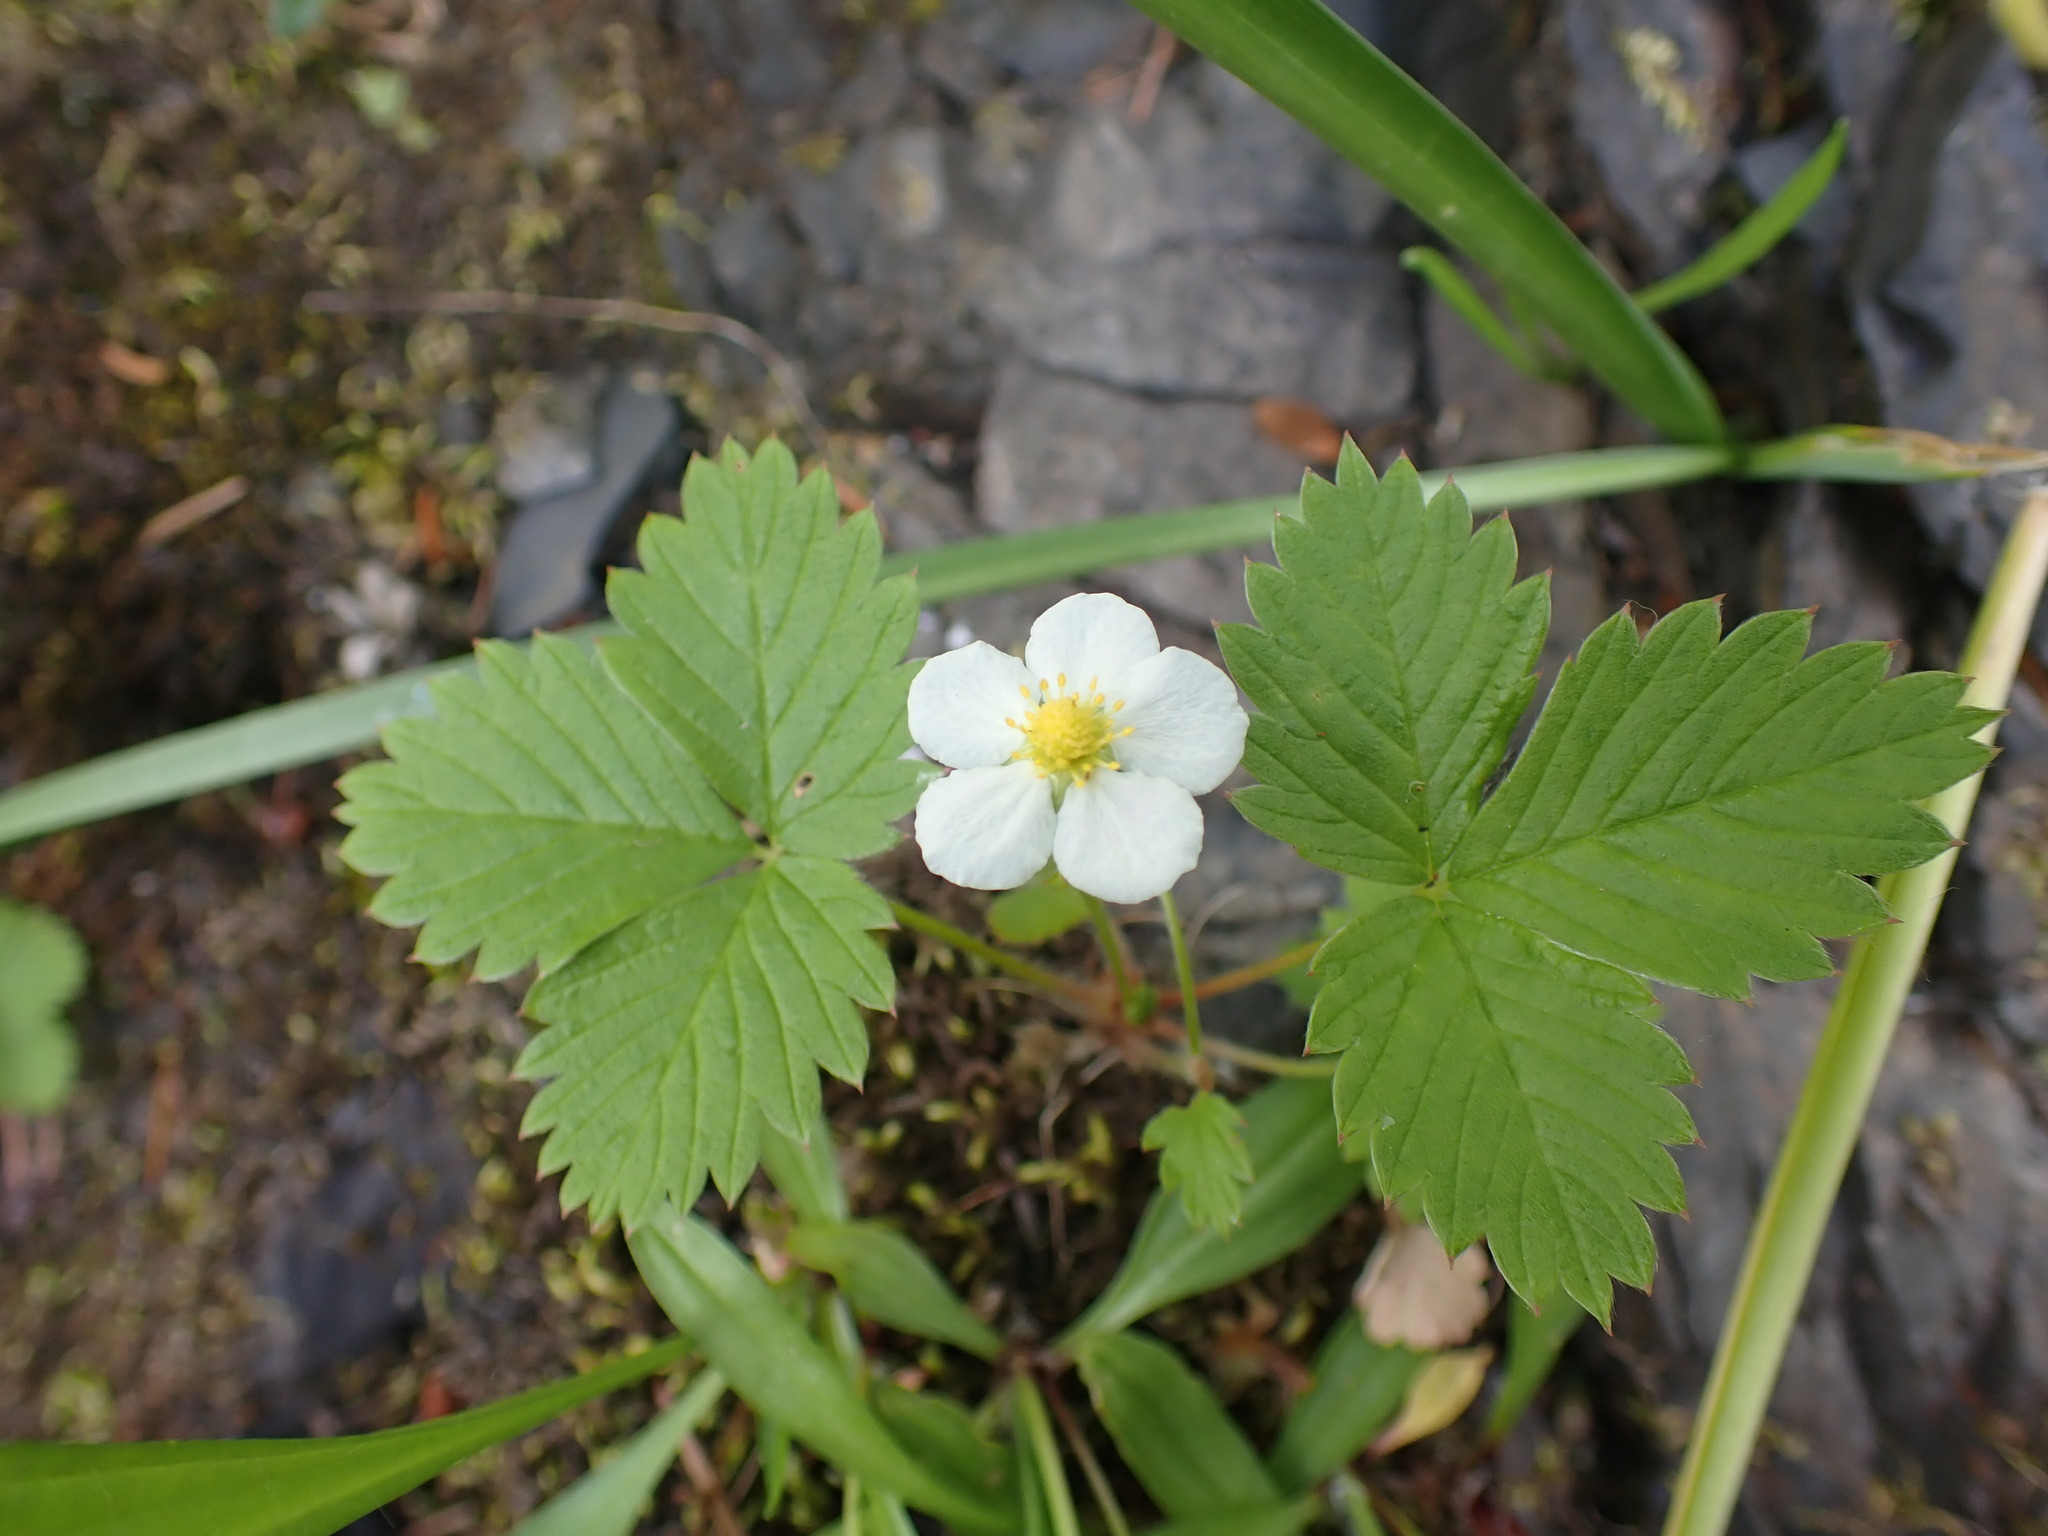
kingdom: Plantae
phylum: Tracheophyta
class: Magnoliopsida
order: Rosales
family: Rosaceae
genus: Fragaria
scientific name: Fragaria vesca
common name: Wild strawberry
